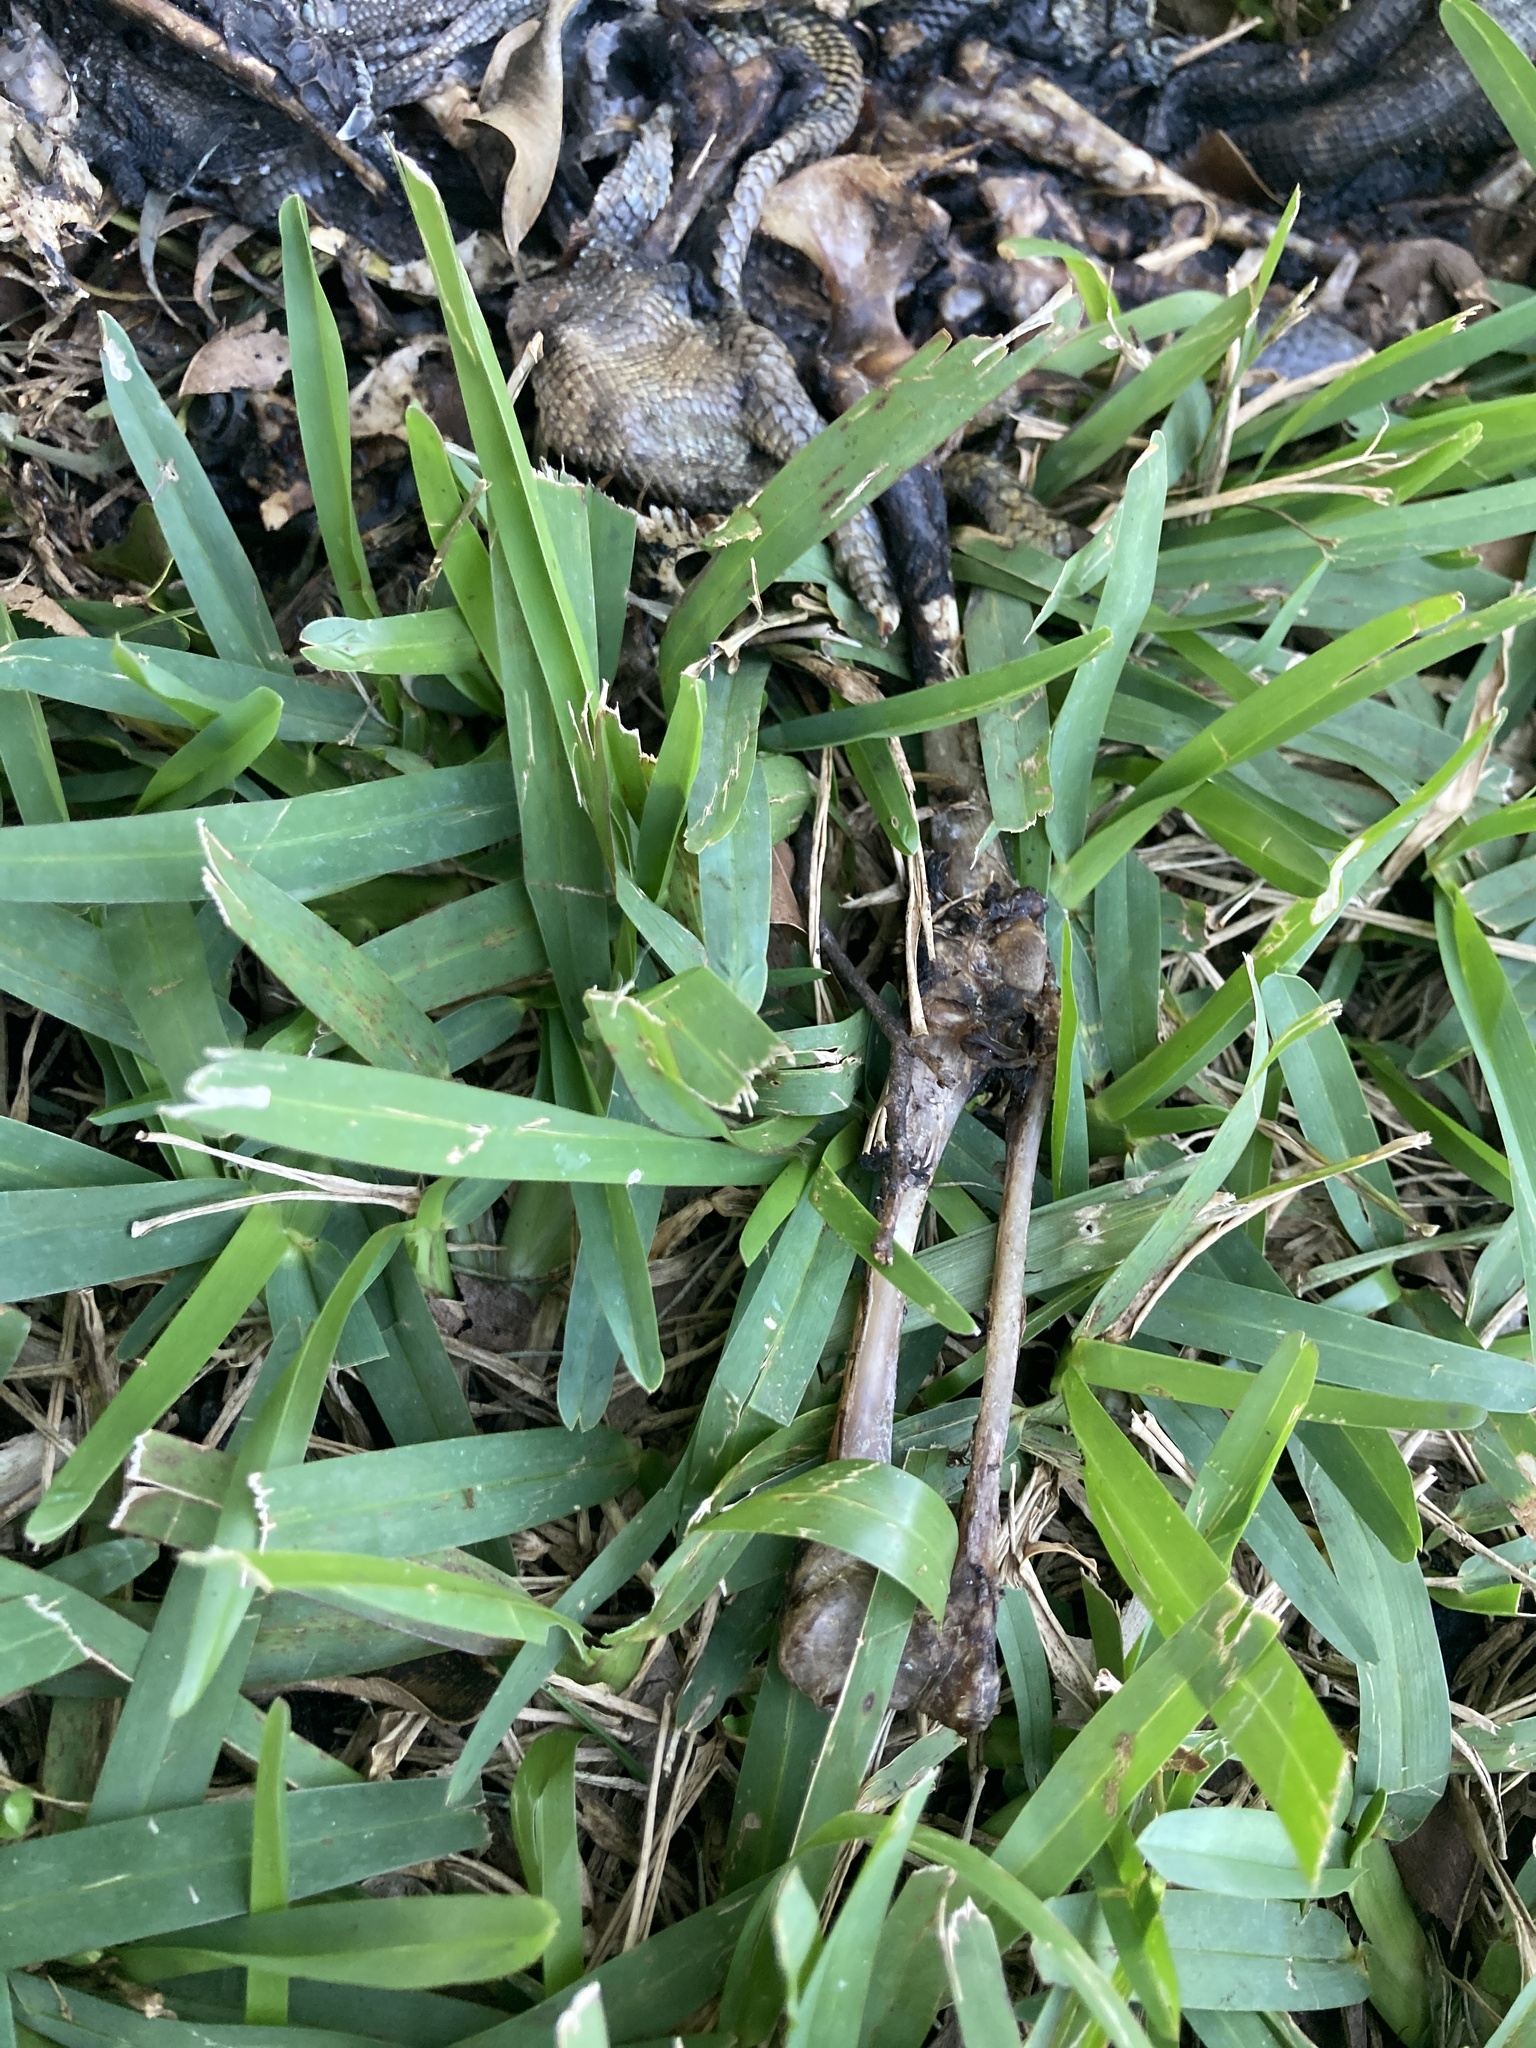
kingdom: Animalia
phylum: Chordata
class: Squamata
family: Iguanidae
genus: Iguana
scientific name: Iguana iguana
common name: Green iguana
